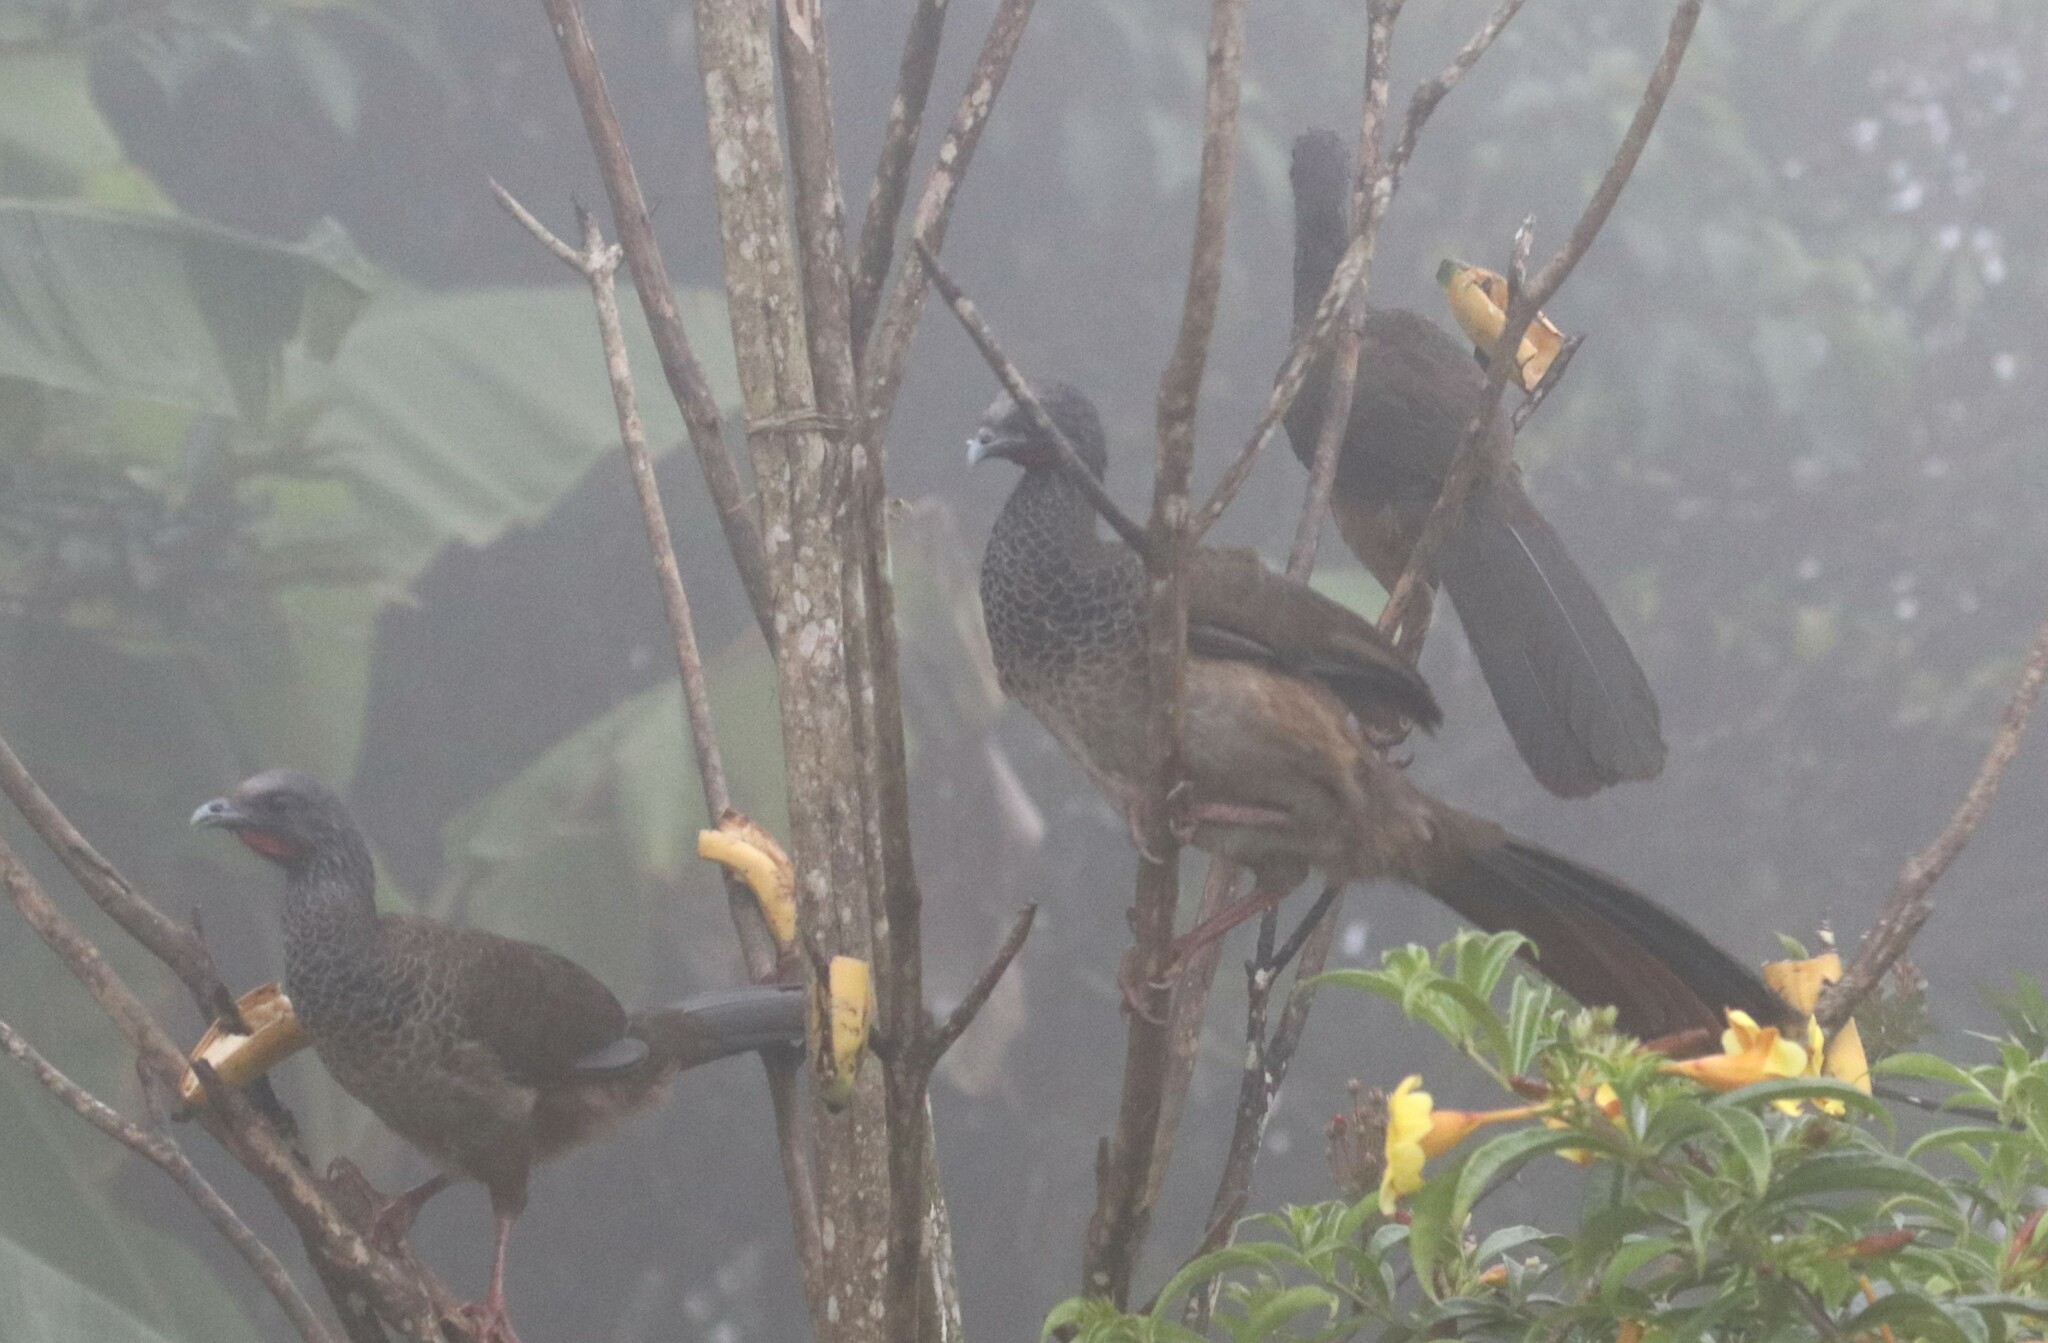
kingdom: Animalia
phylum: Chordata
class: Aves
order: Galliformes
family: Cracidae
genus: Ortalis
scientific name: Ortalis columbiana
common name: Colombian chachalaca
